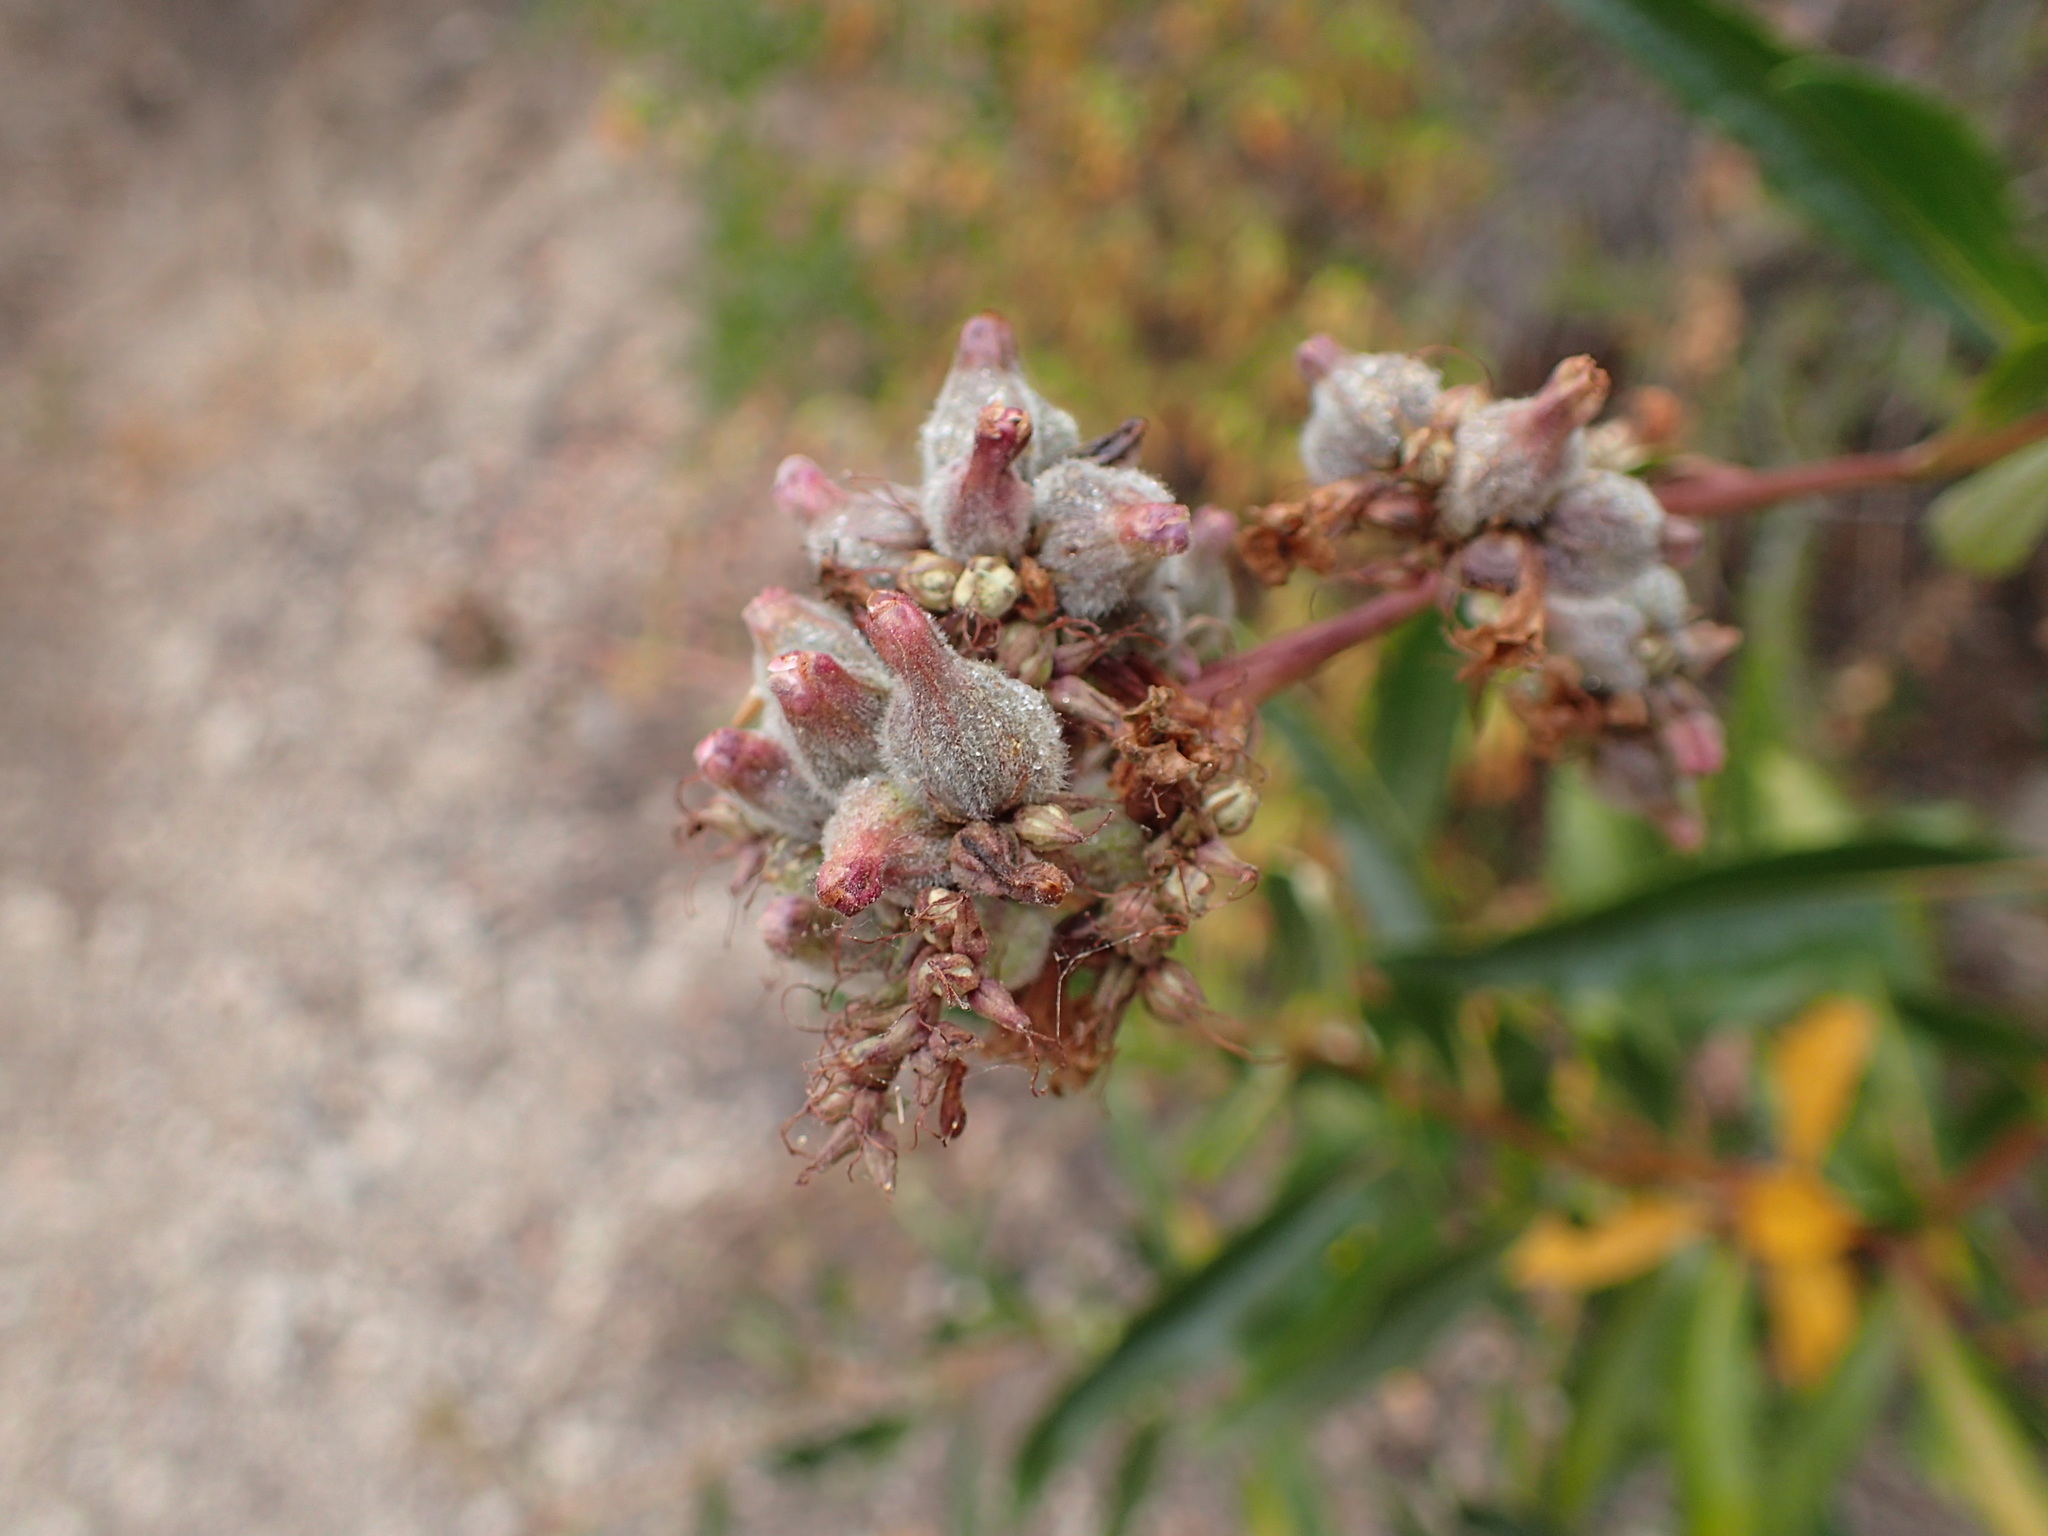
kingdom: Plantae
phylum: Tracheophyta
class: Magnoliopsida
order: Boraginales
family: Namaceae
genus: Eriodictyon
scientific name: Eriodictyon californicum
